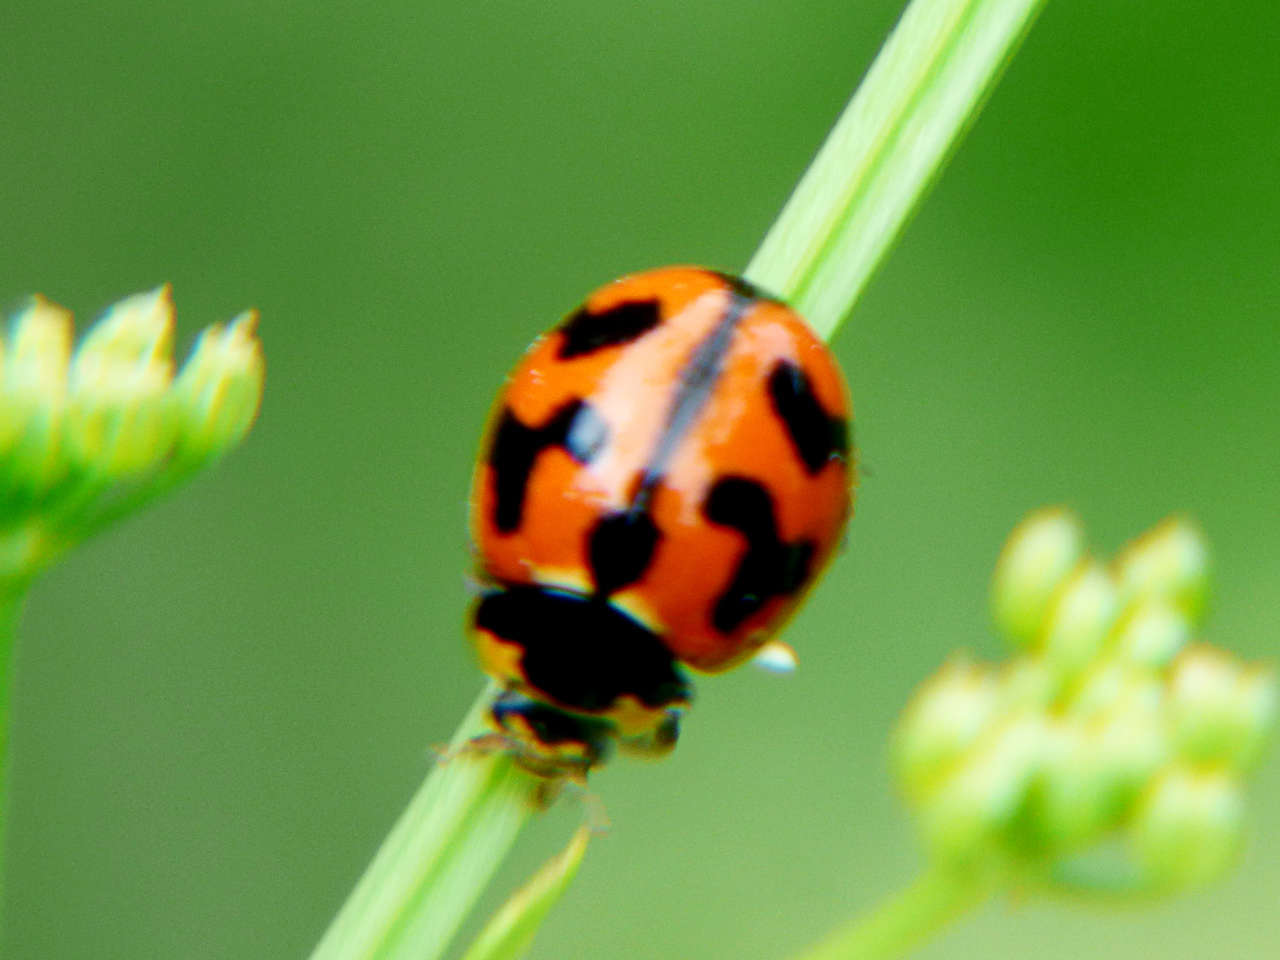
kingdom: Animalia
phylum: Arthropoda
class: Insecta
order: Coleoptera
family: Coccinellidae
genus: Coccinella
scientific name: Coccinella transversalis
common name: Transverse lady beetle
